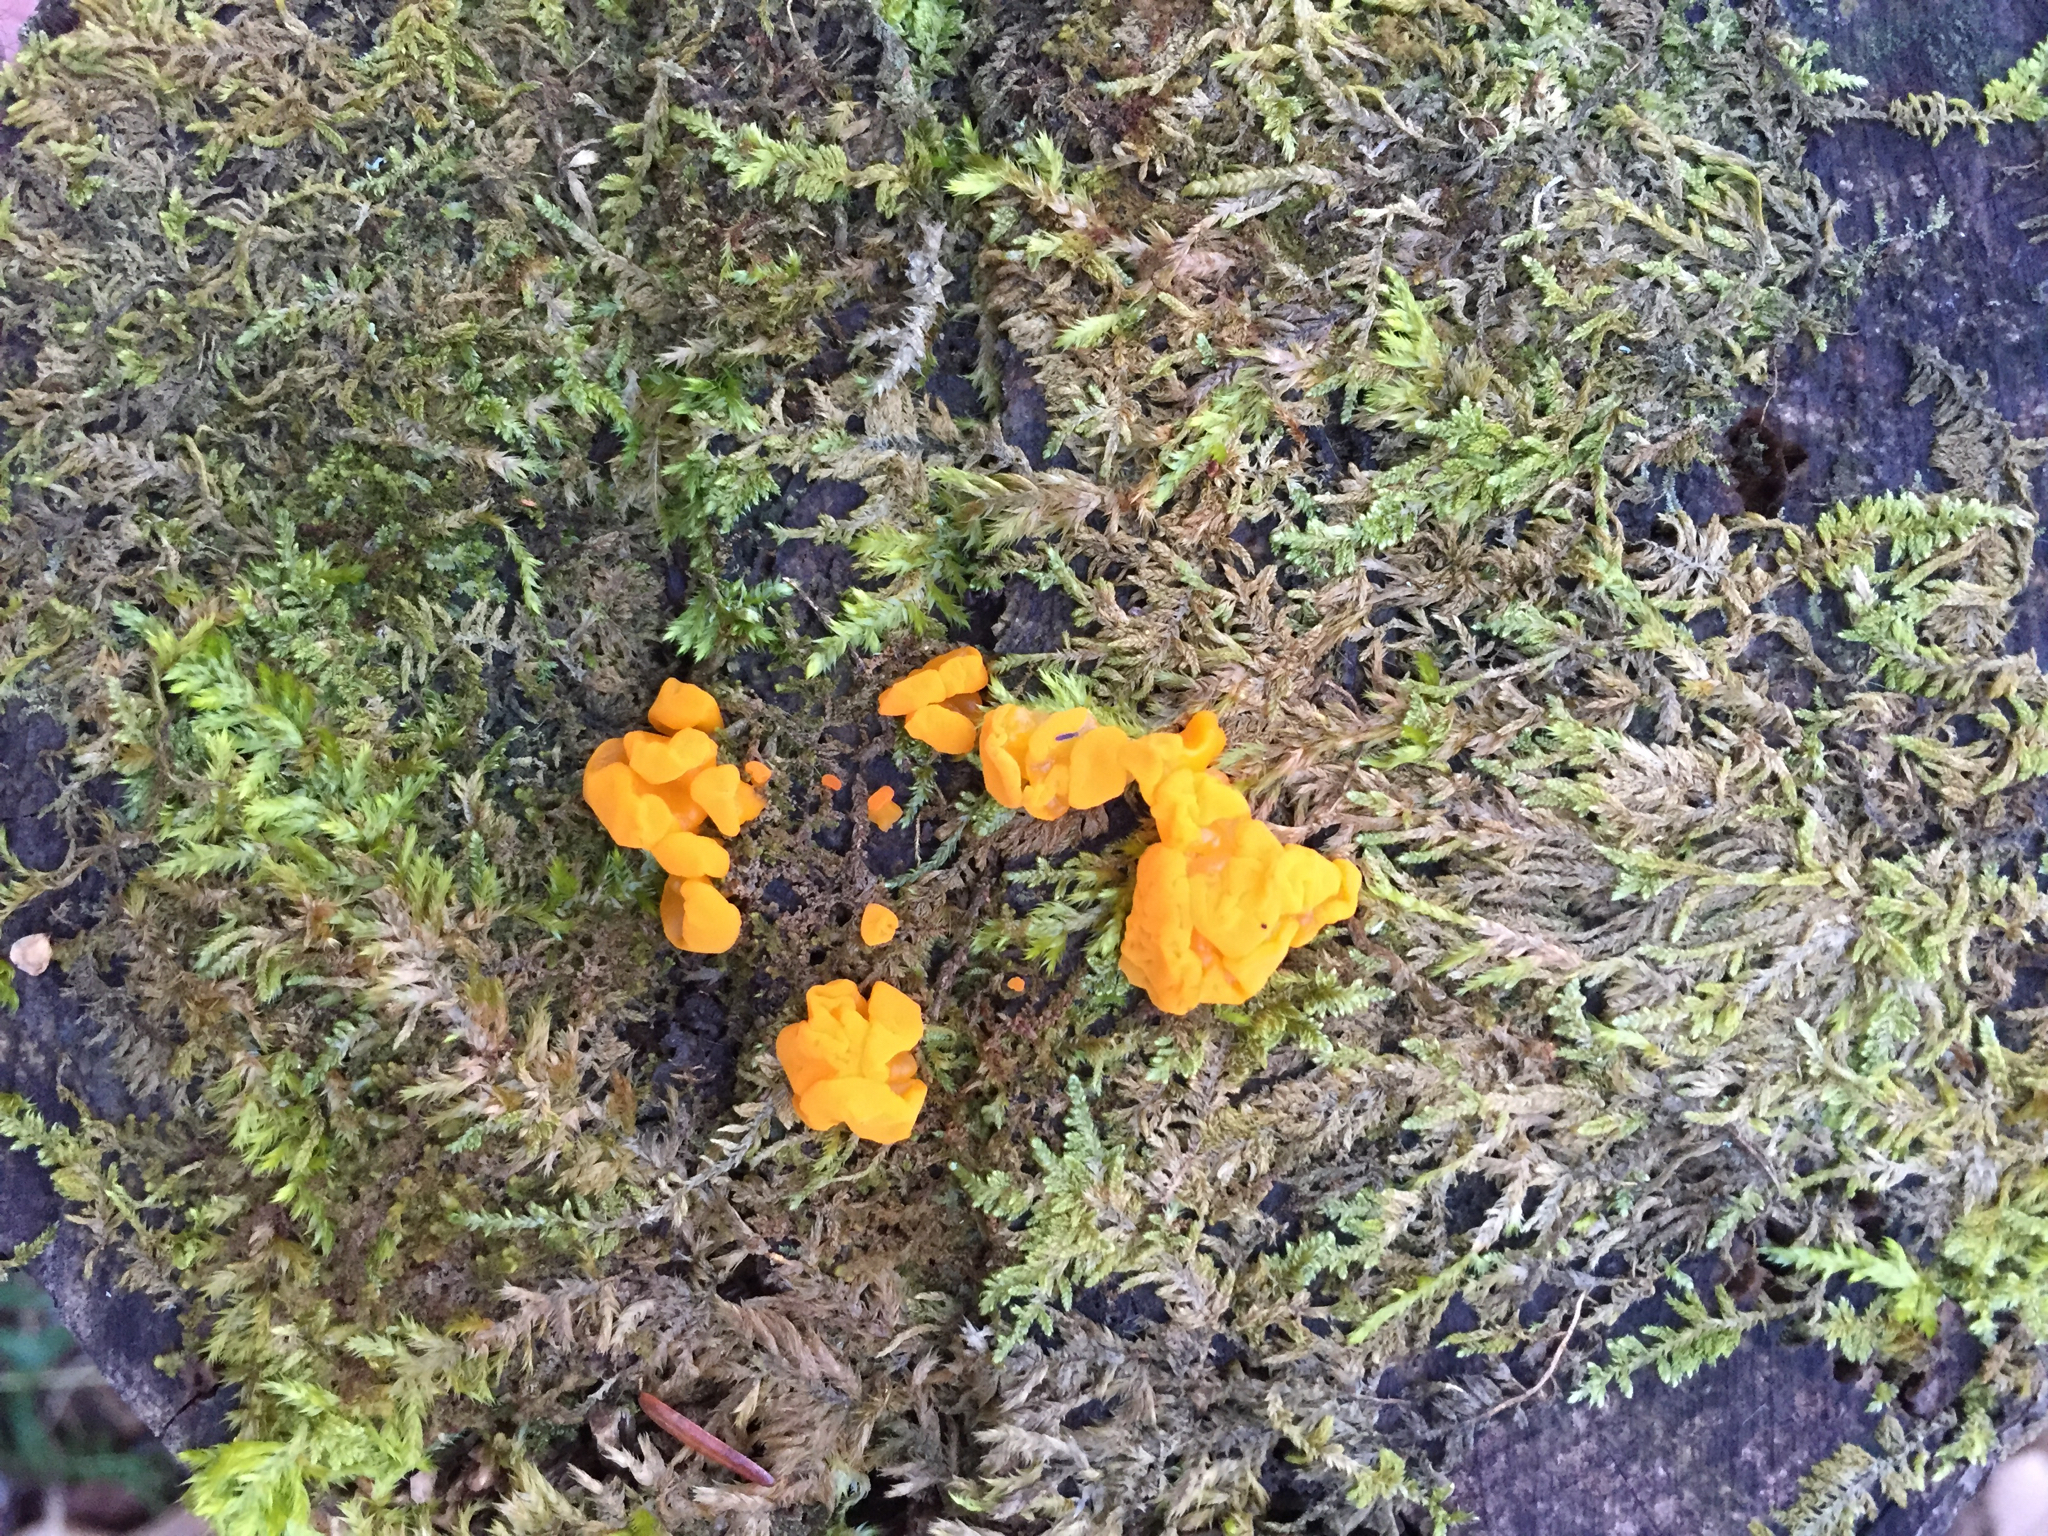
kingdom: Fungi
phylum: Basidiomycota
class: Dacrymycetes
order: Dacrymycetales
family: Dacrymycetaceae
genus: Dacrymyces
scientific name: Dacrymyces chrysospermus
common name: Orange jelly spot
